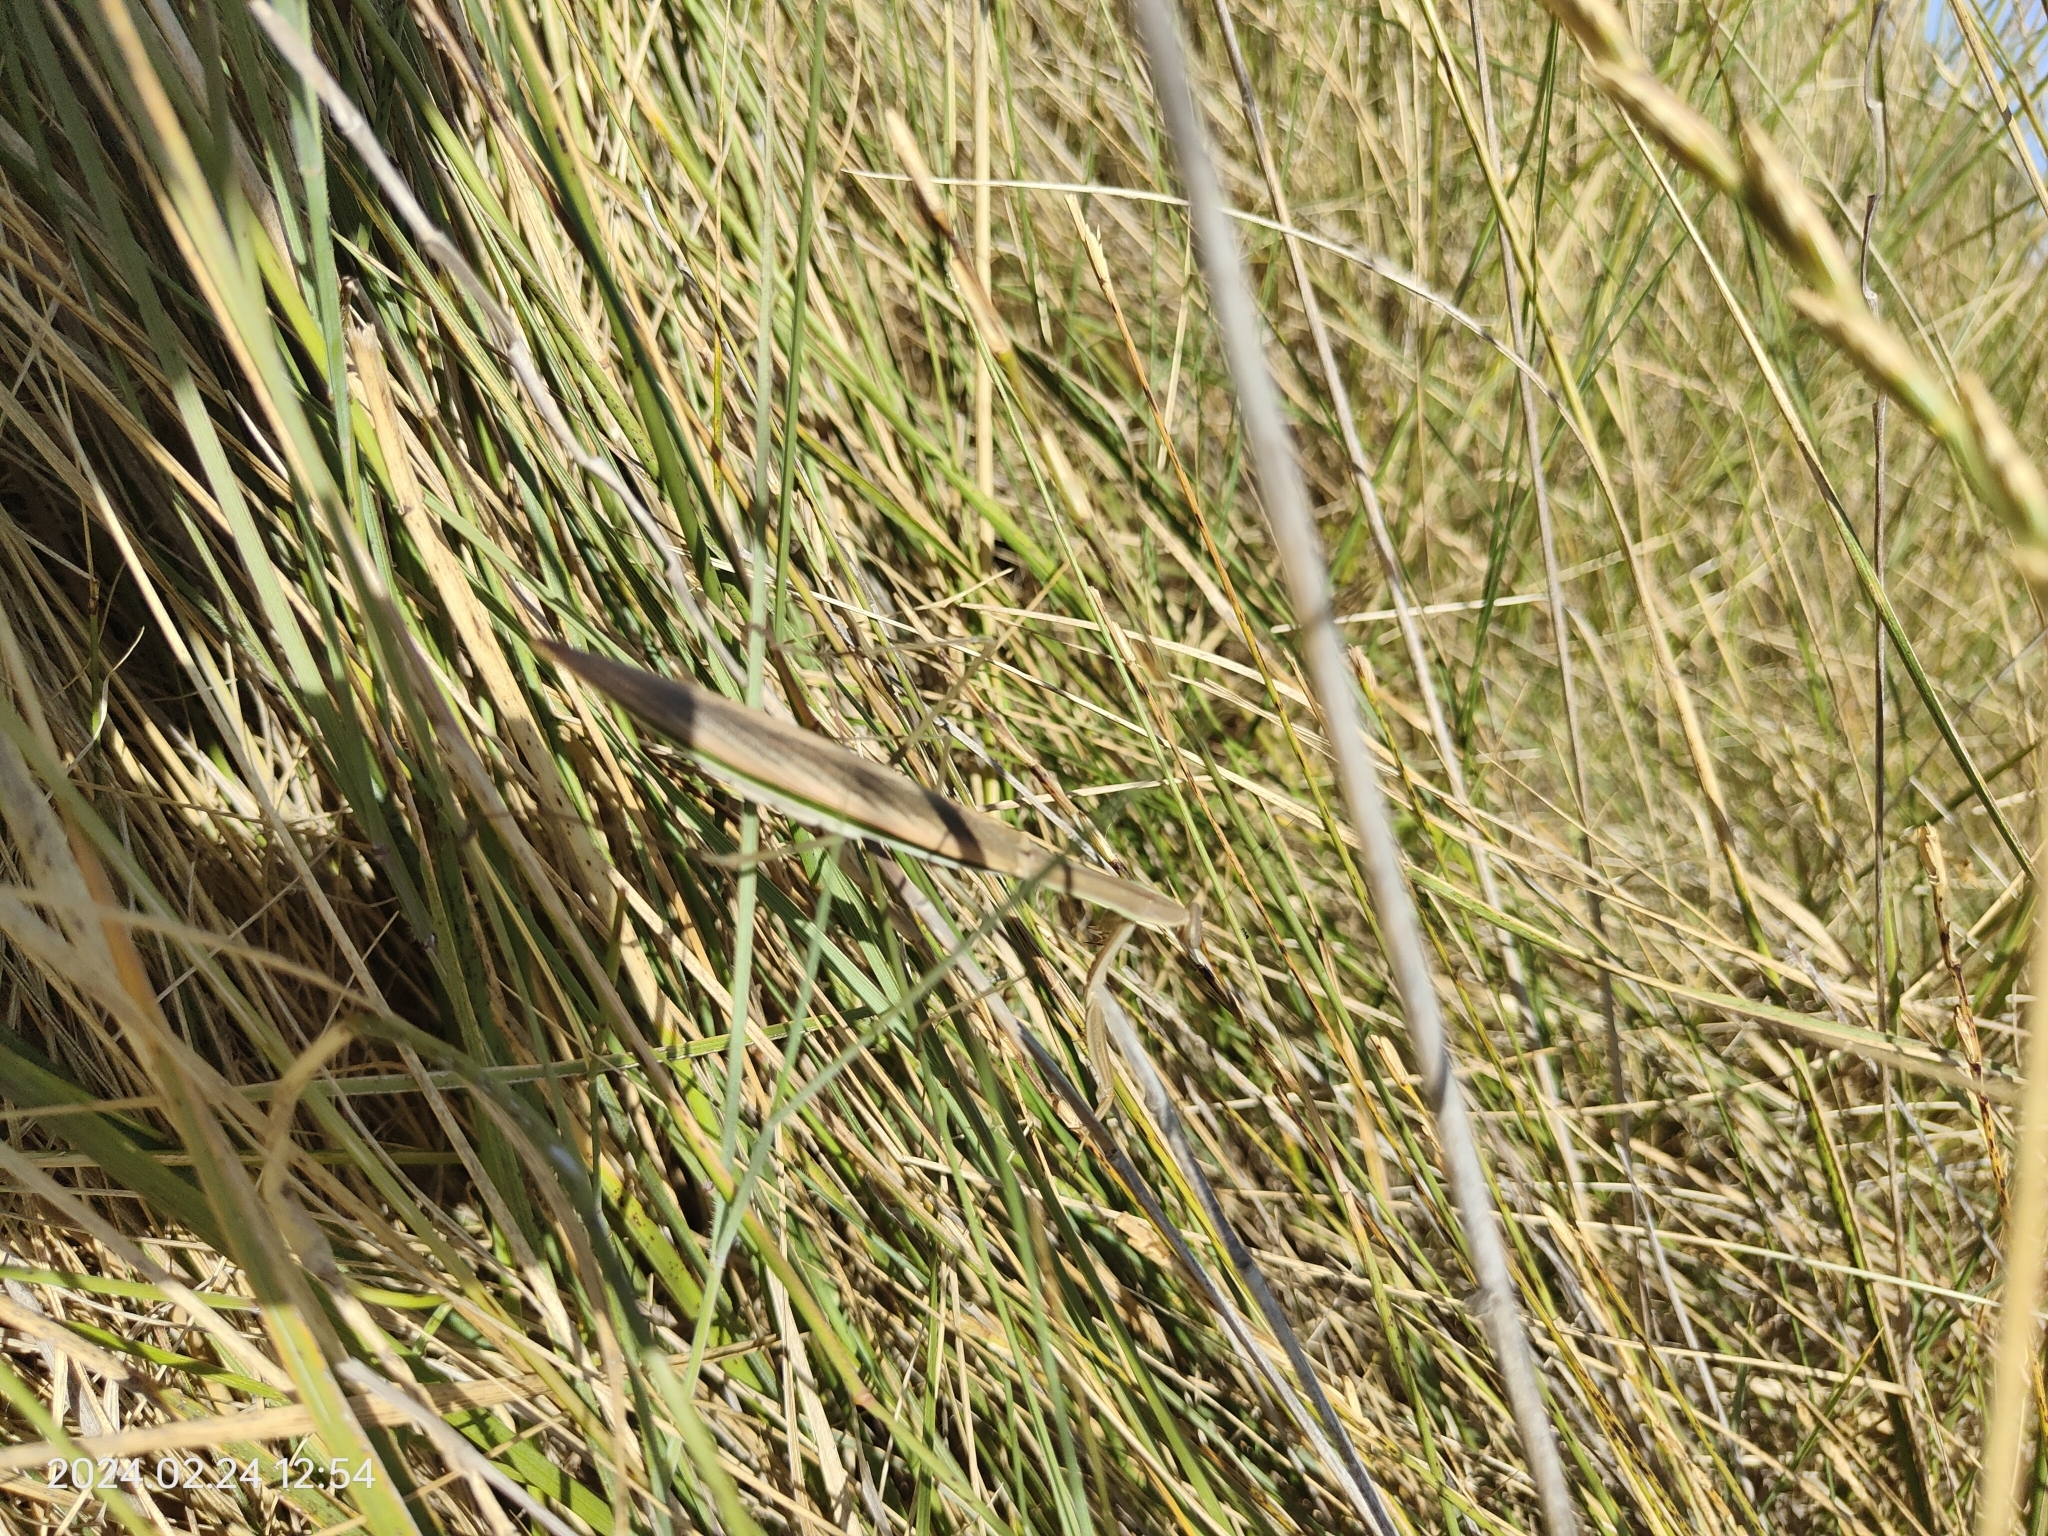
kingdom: Animalia
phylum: Arthropoda
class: Insecta
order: Mantodea
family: Mantidae
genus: Tenodera
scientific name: Tenodera australasiae
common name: Purple-winged mantis
